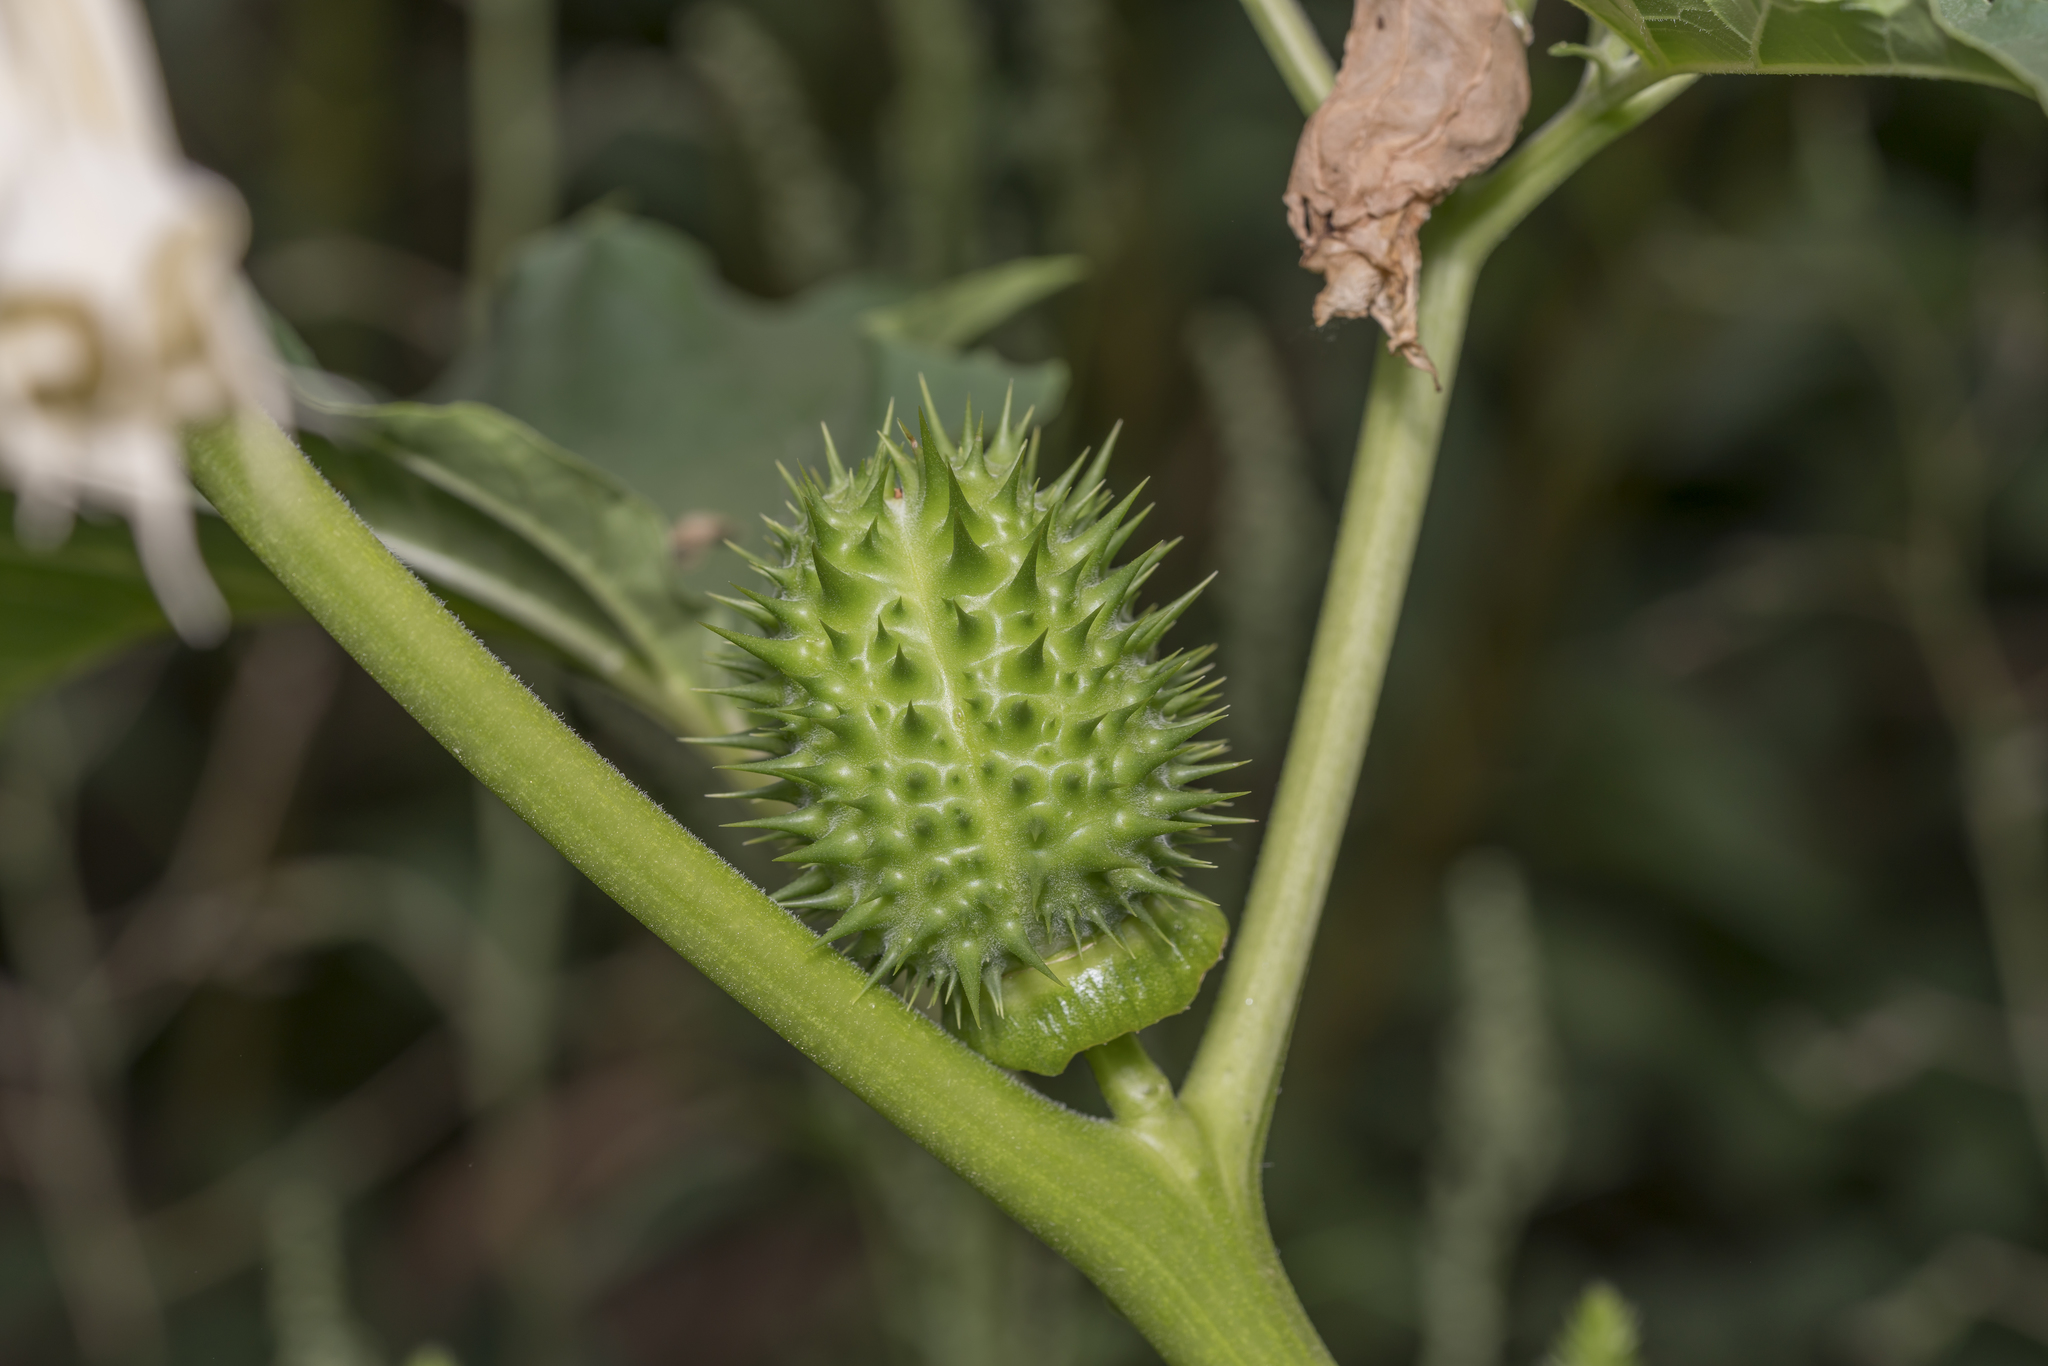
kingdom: Plantae
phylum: Tracheophyta
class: Magnoliopsida
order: Solanales
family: Solanaceae
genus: Datura
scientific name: Datura stramonium
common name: Thorn-apple
